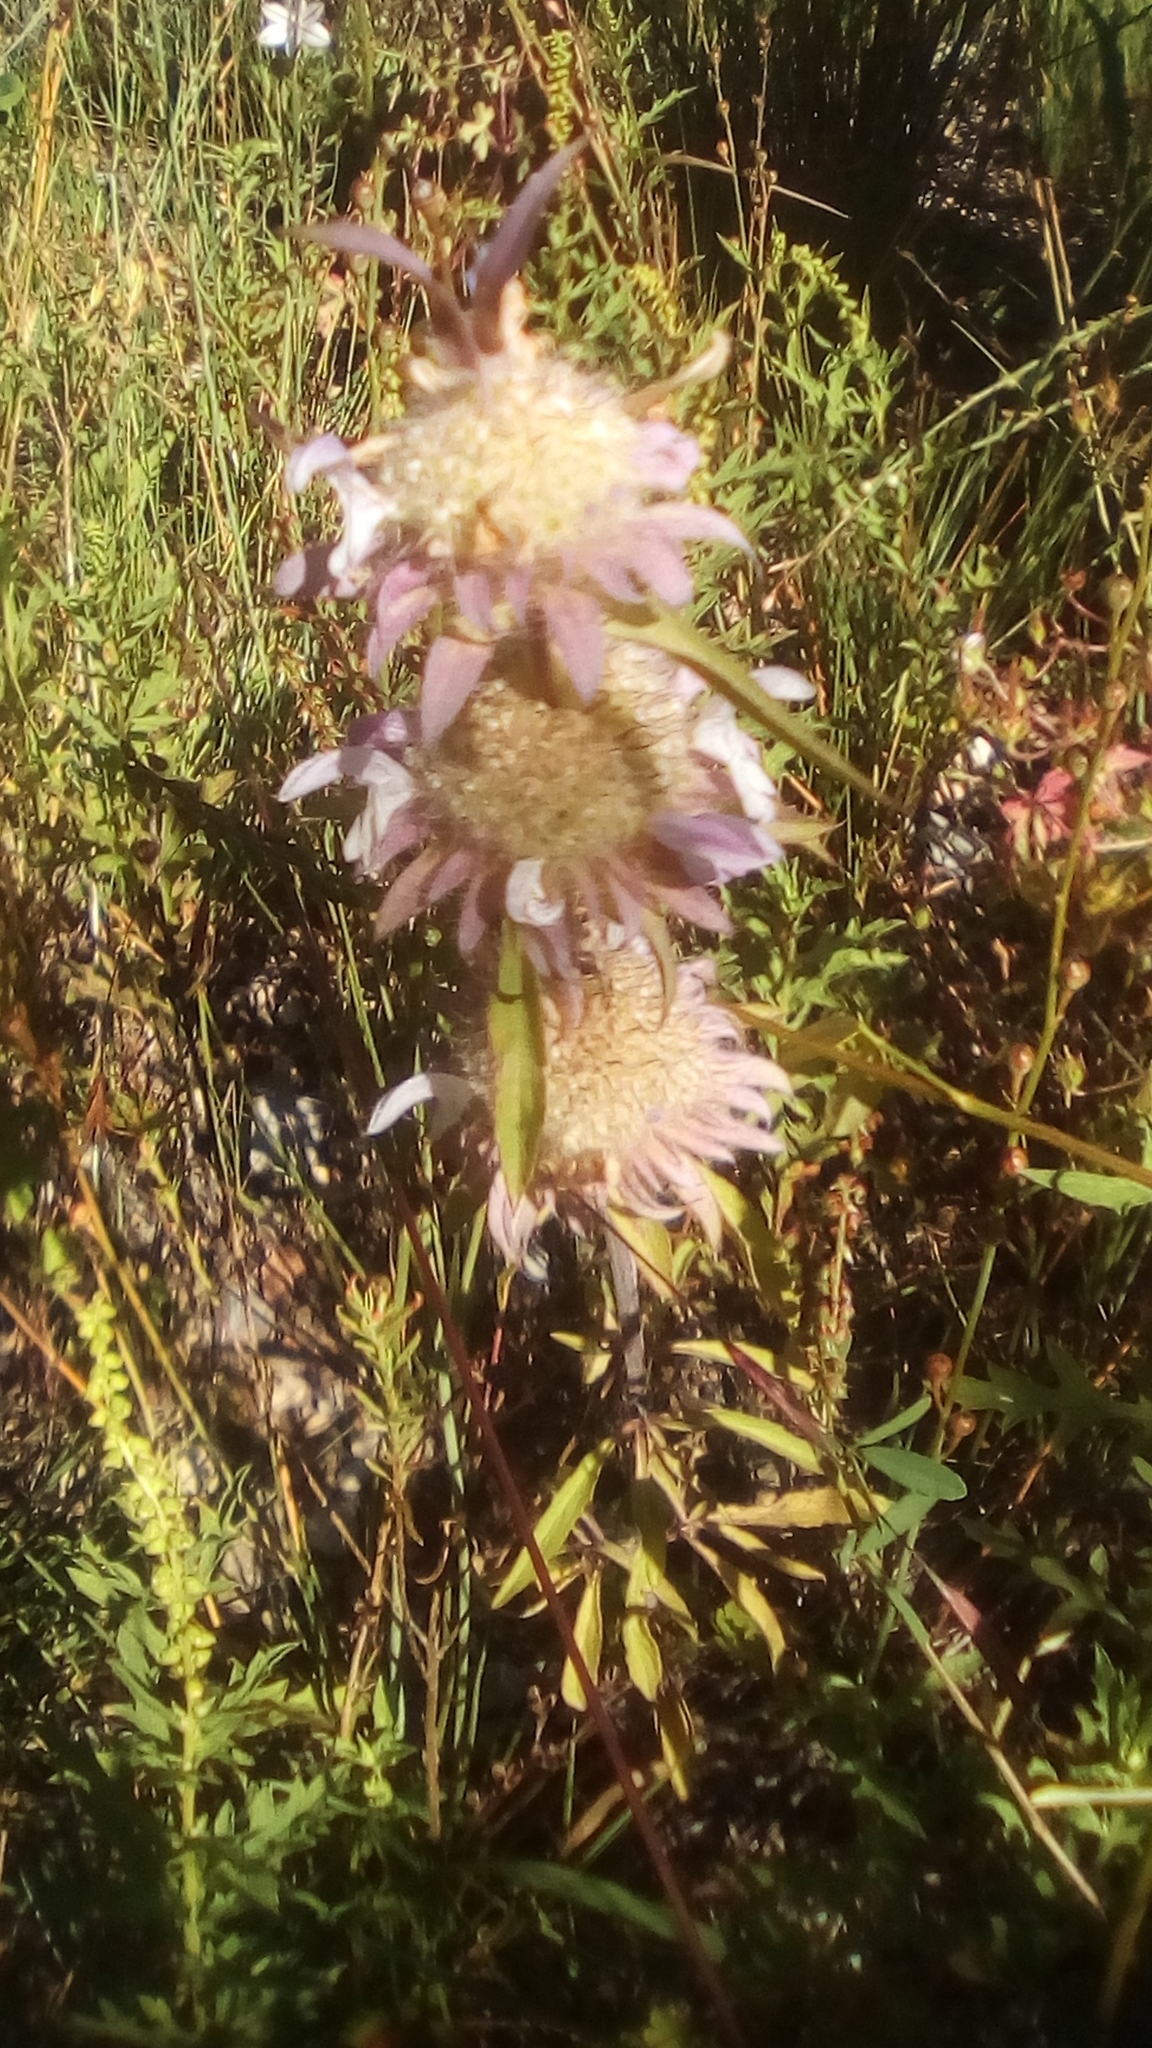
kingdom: Plantae
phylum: Tracheophyta
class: Magnoliopsida
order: Lamiales
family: Lamiaceae
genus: Monarda
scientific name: Monarda citriodora
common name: Lemon beebalm
